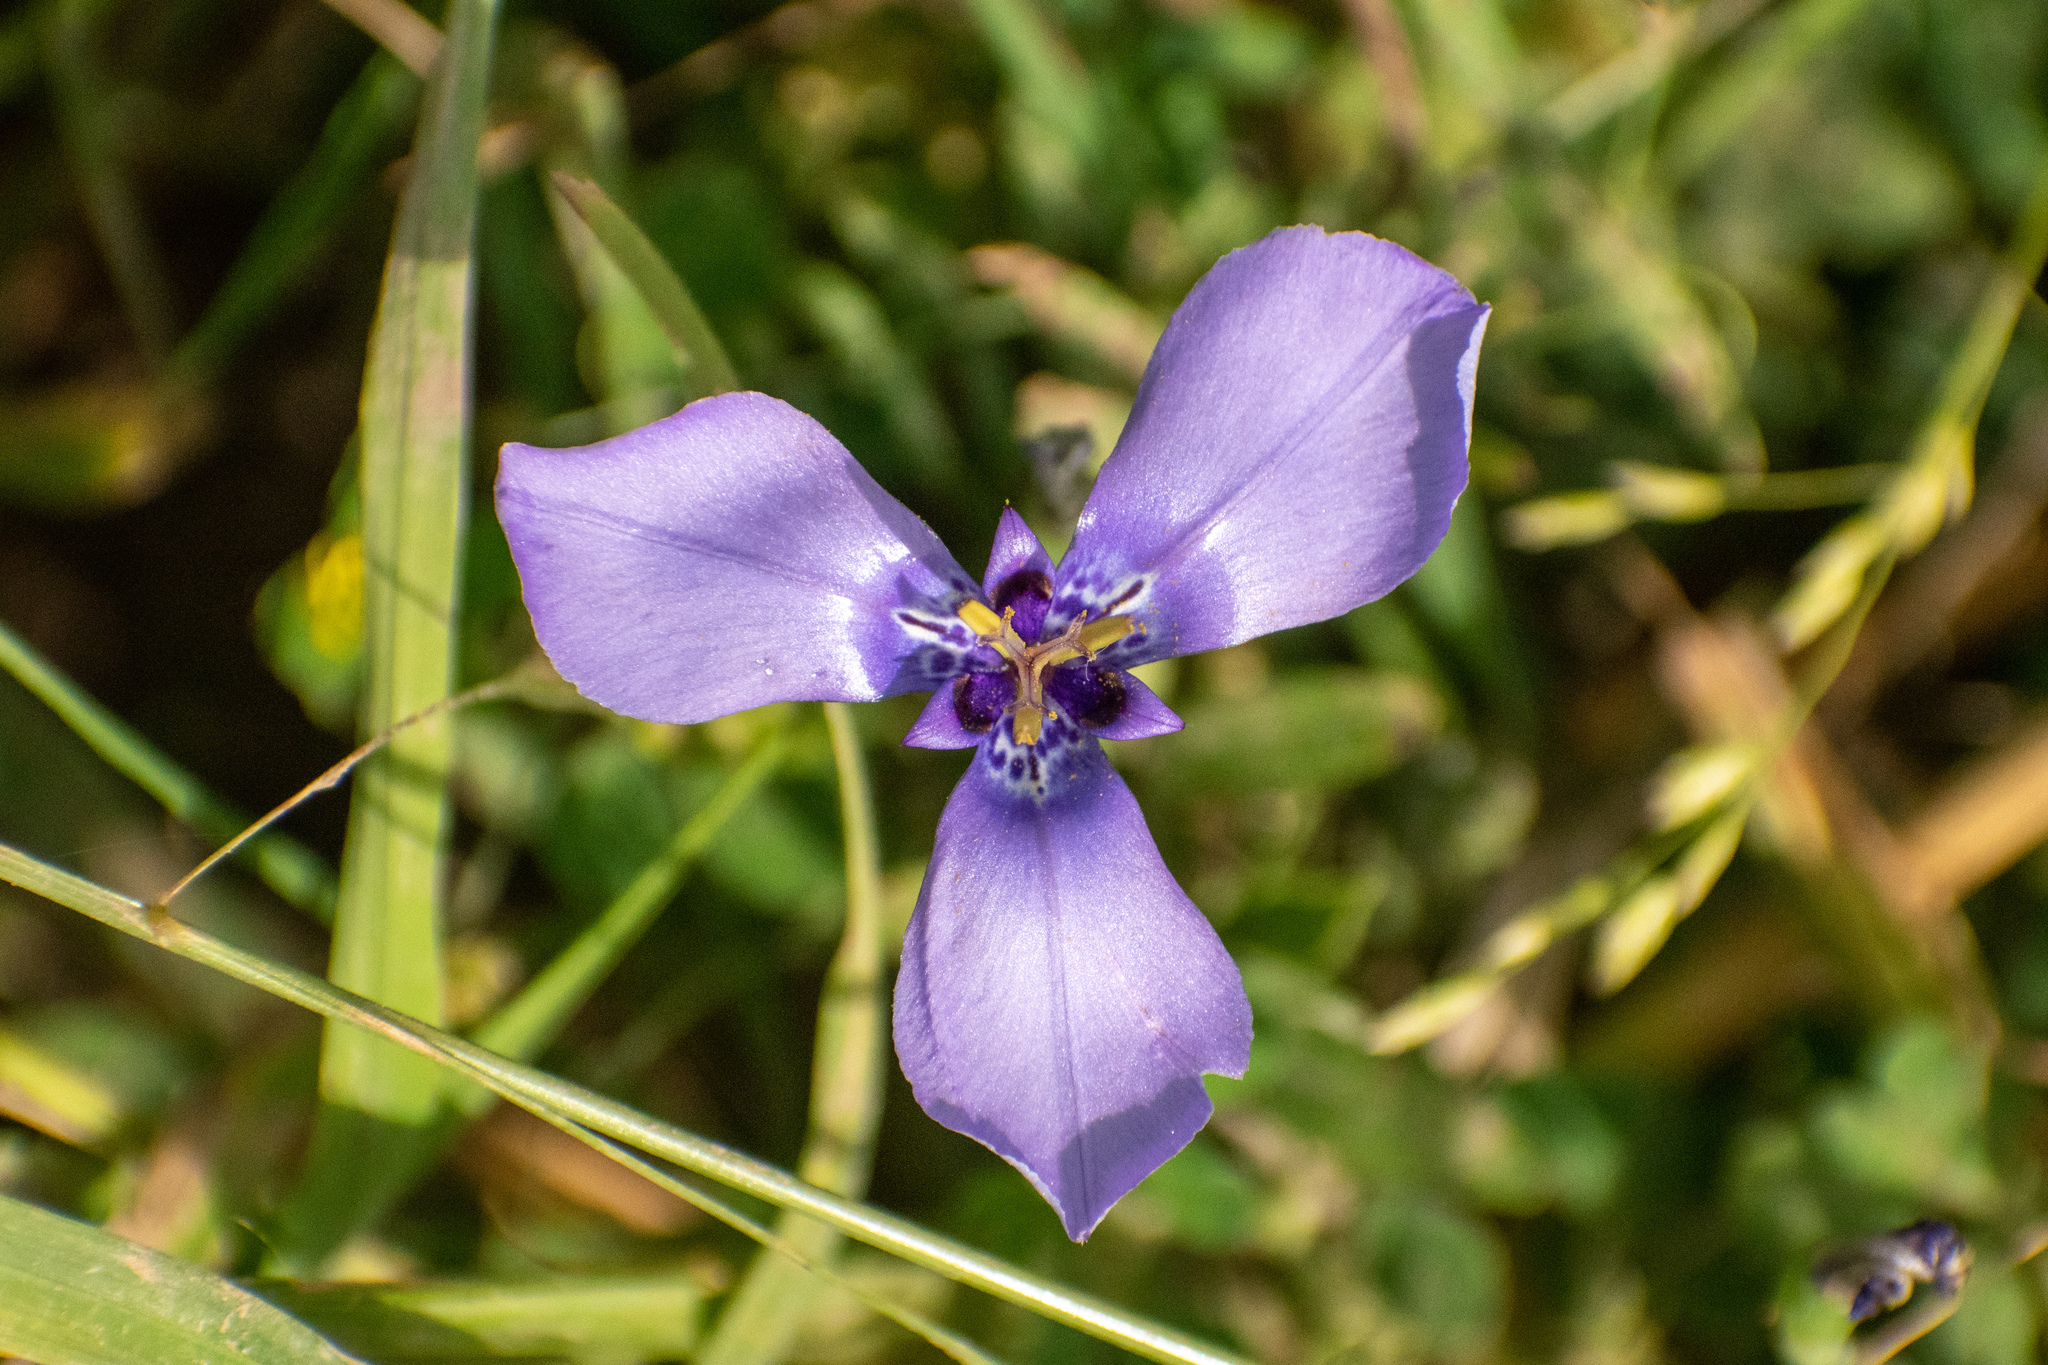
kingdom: Plantae
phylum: Tracheophyta
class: Liliopsida
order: Asparagales
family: Iridaceae
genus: Herbertia
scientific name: Herbertia lahue
